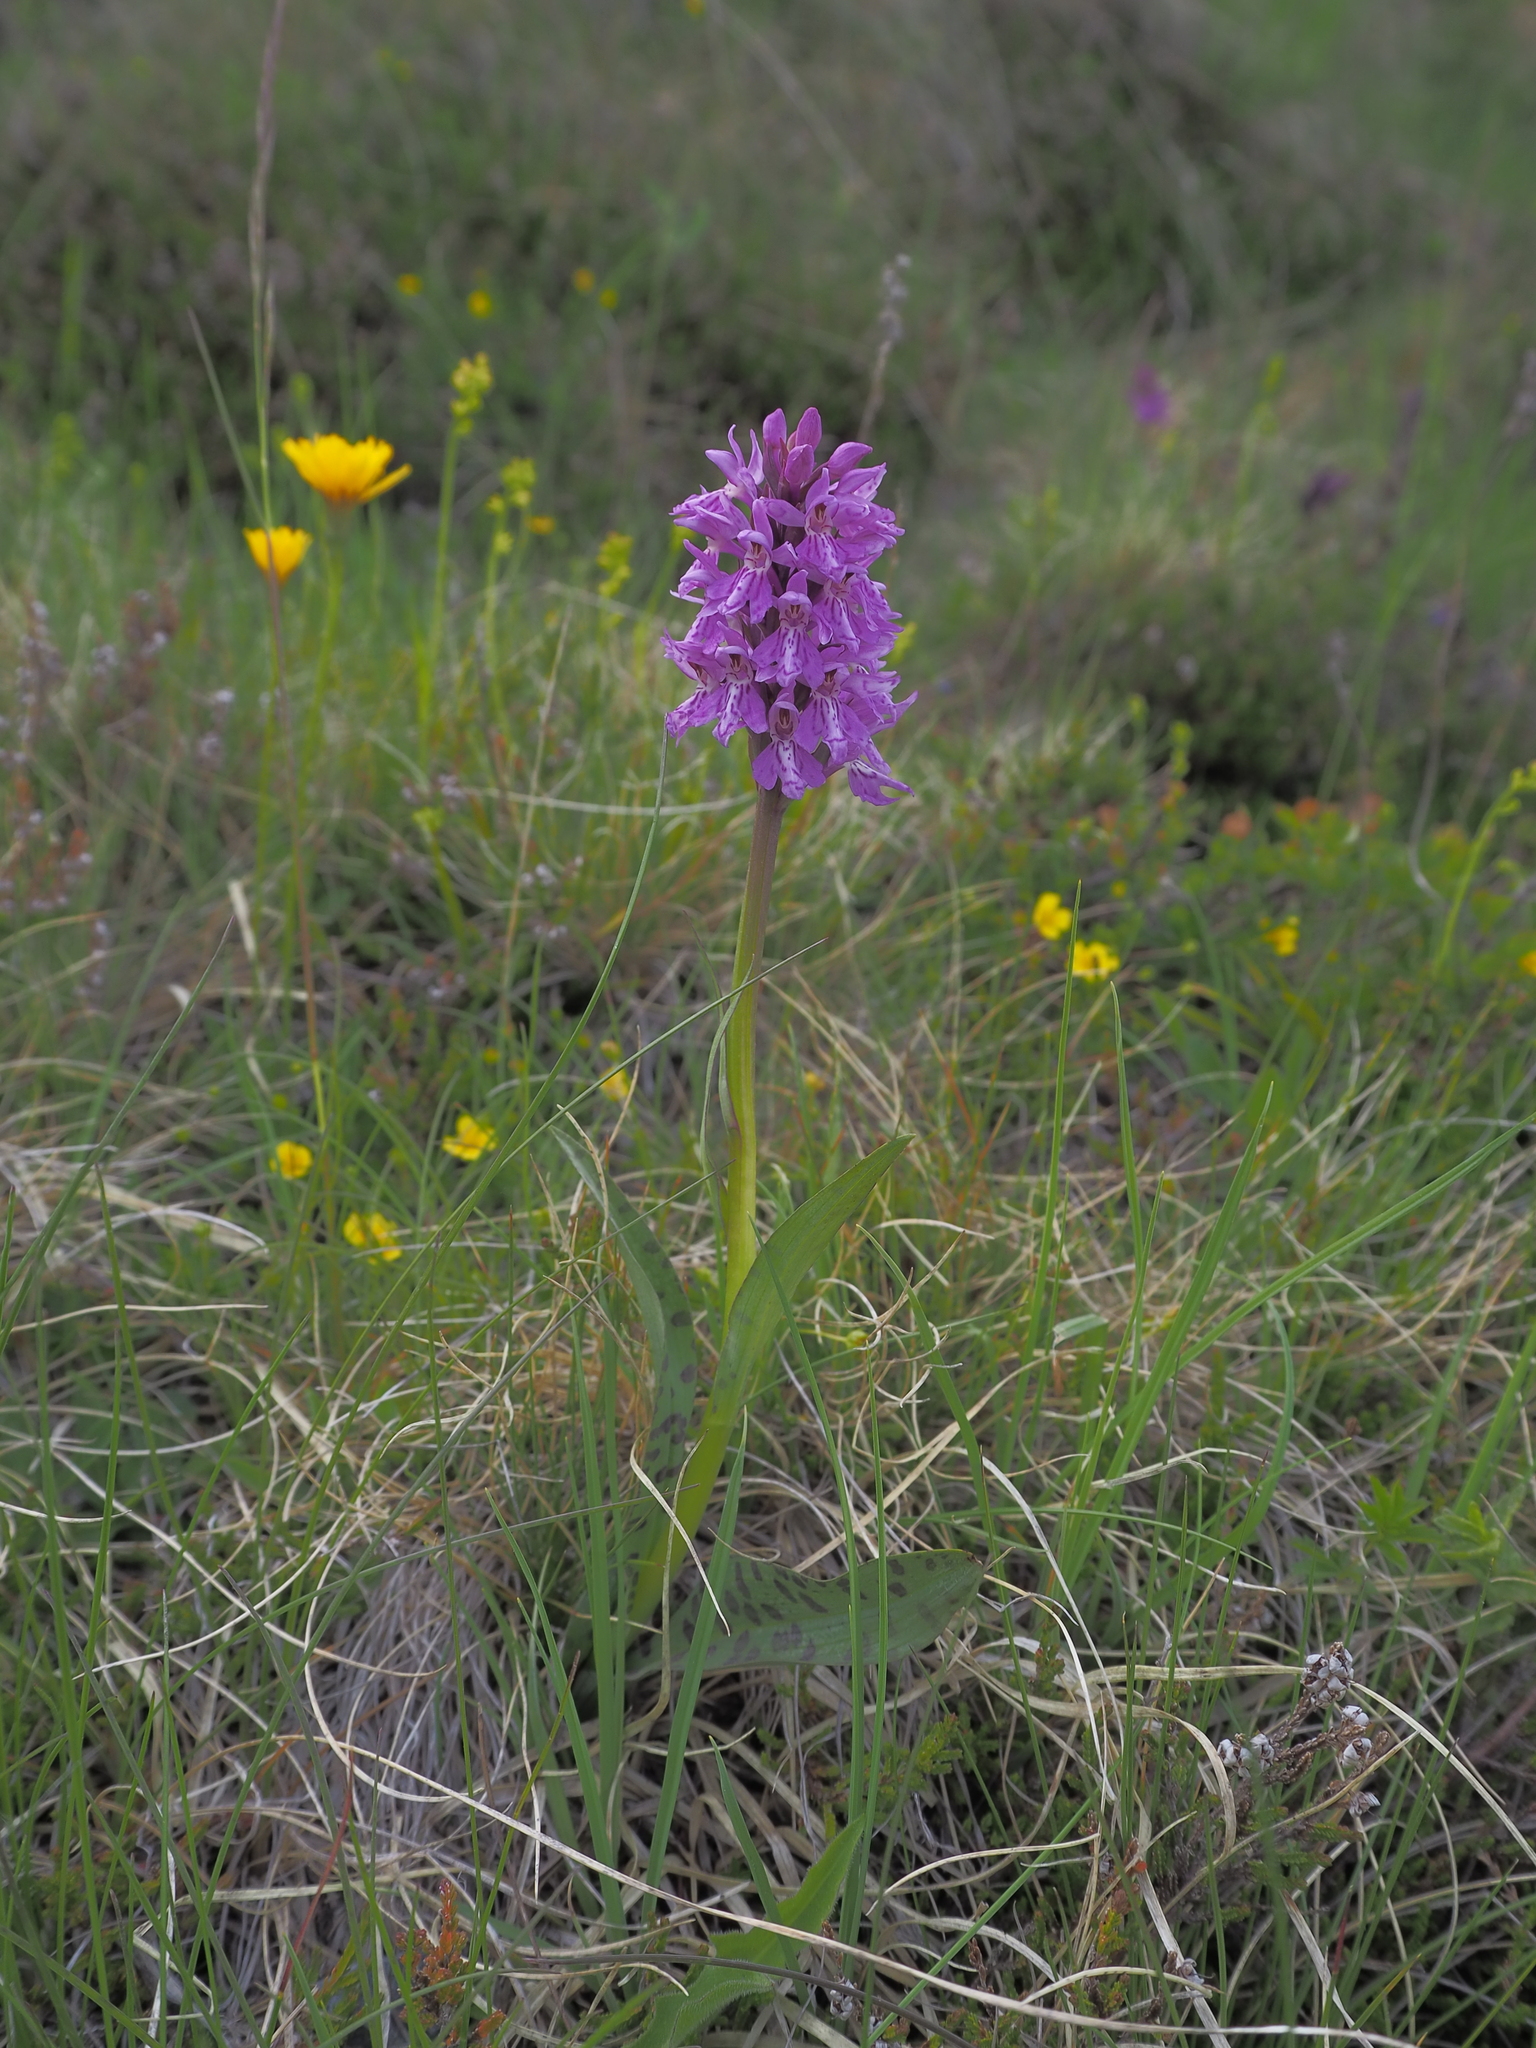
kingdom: Plantae
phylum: Tracheophyta
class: Liliopsida
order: Asparagales
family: Orchidaceae
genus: Dactylorhiza
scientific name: Dactylorhiza maculata
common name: Heath spotted-orchid
